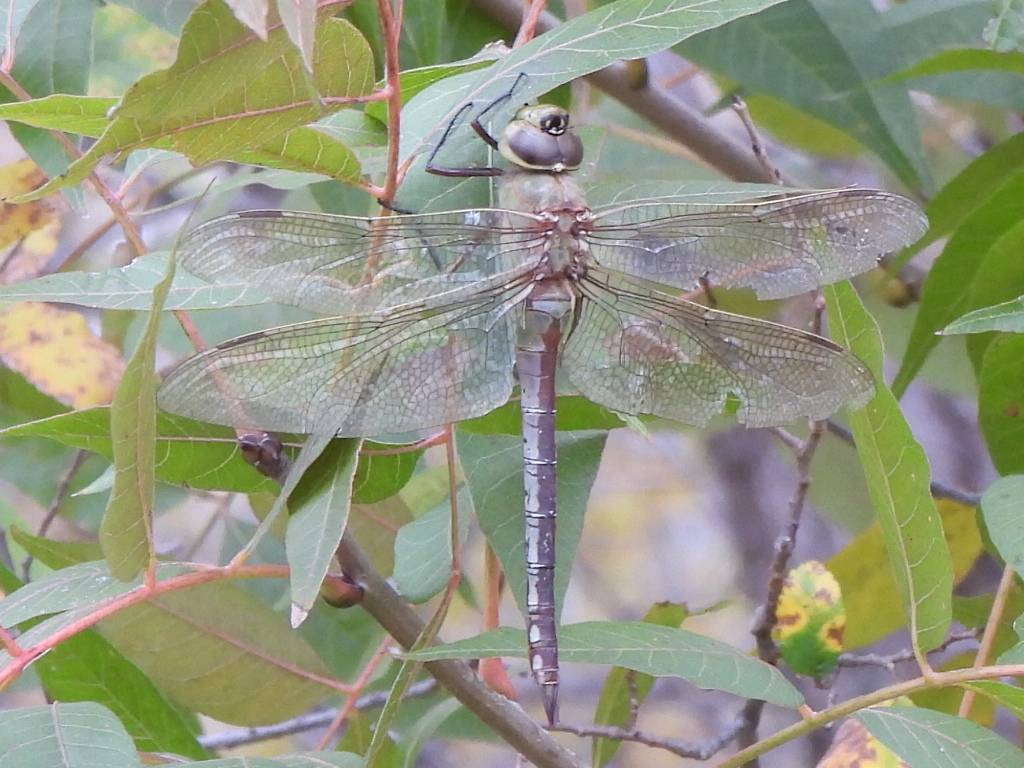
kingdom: Animalia
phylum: Arthropoda
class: Insecta
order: Odonata
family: Aeshnidae
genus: Anax
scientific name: Anax junius
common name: Common green darner
